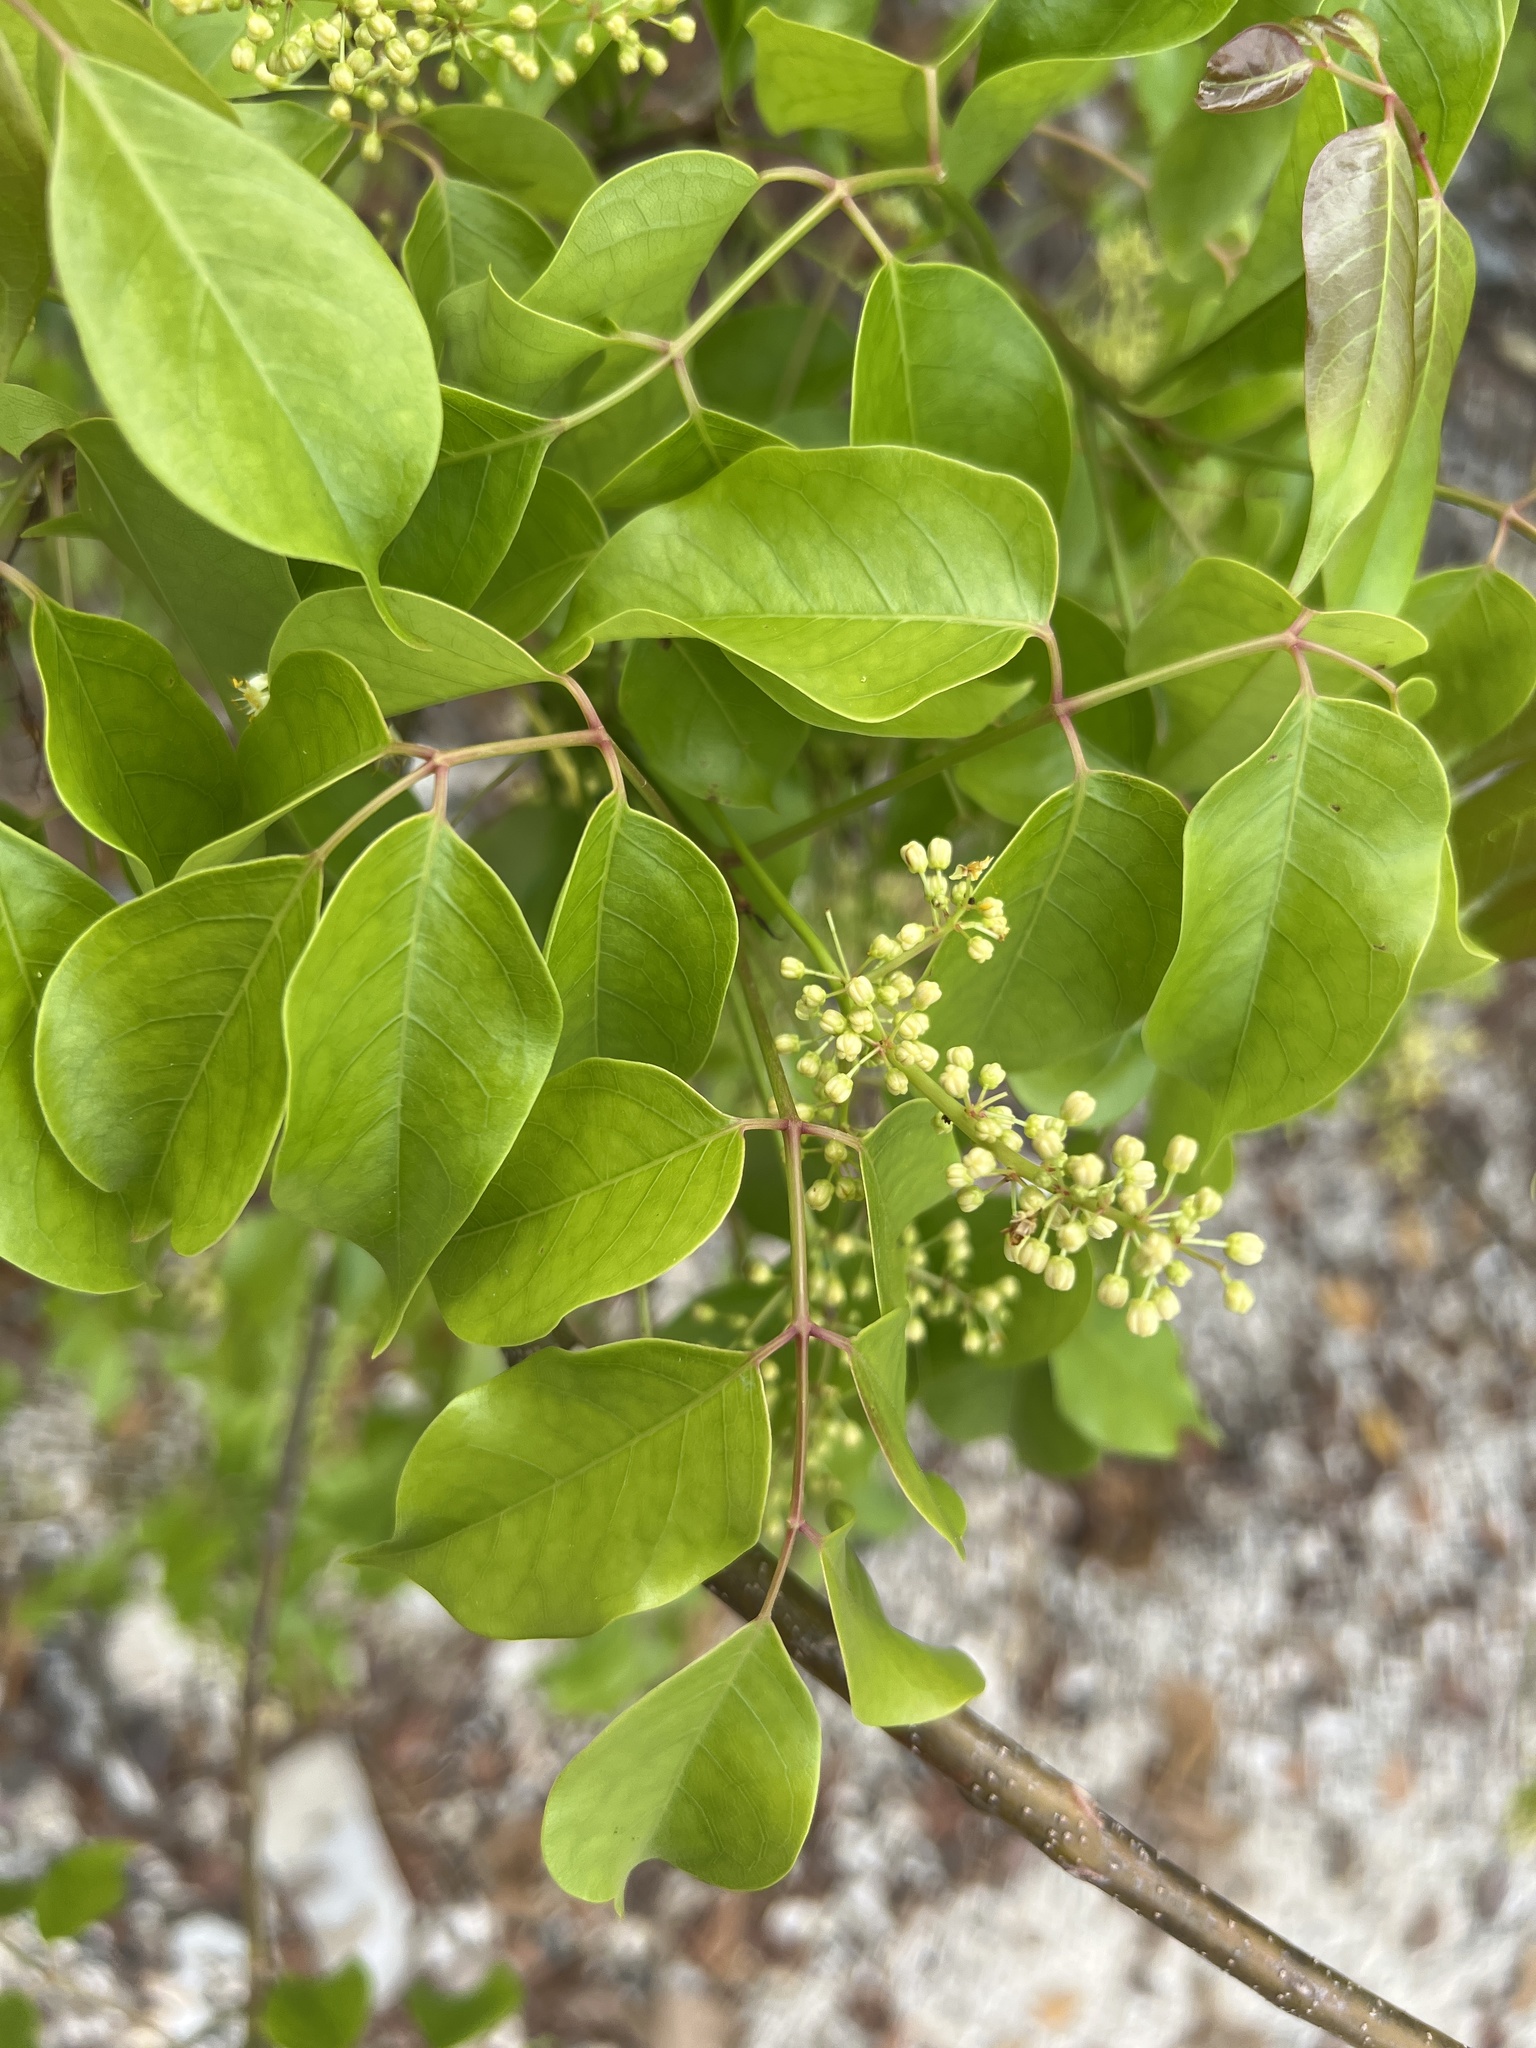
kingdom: Plantae
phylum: Tracheophyta
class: Magnoliopsida
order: Sapindales
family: Burseraceae
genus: Bursera
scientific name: Bursera simaruba
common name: Turpentine tree
